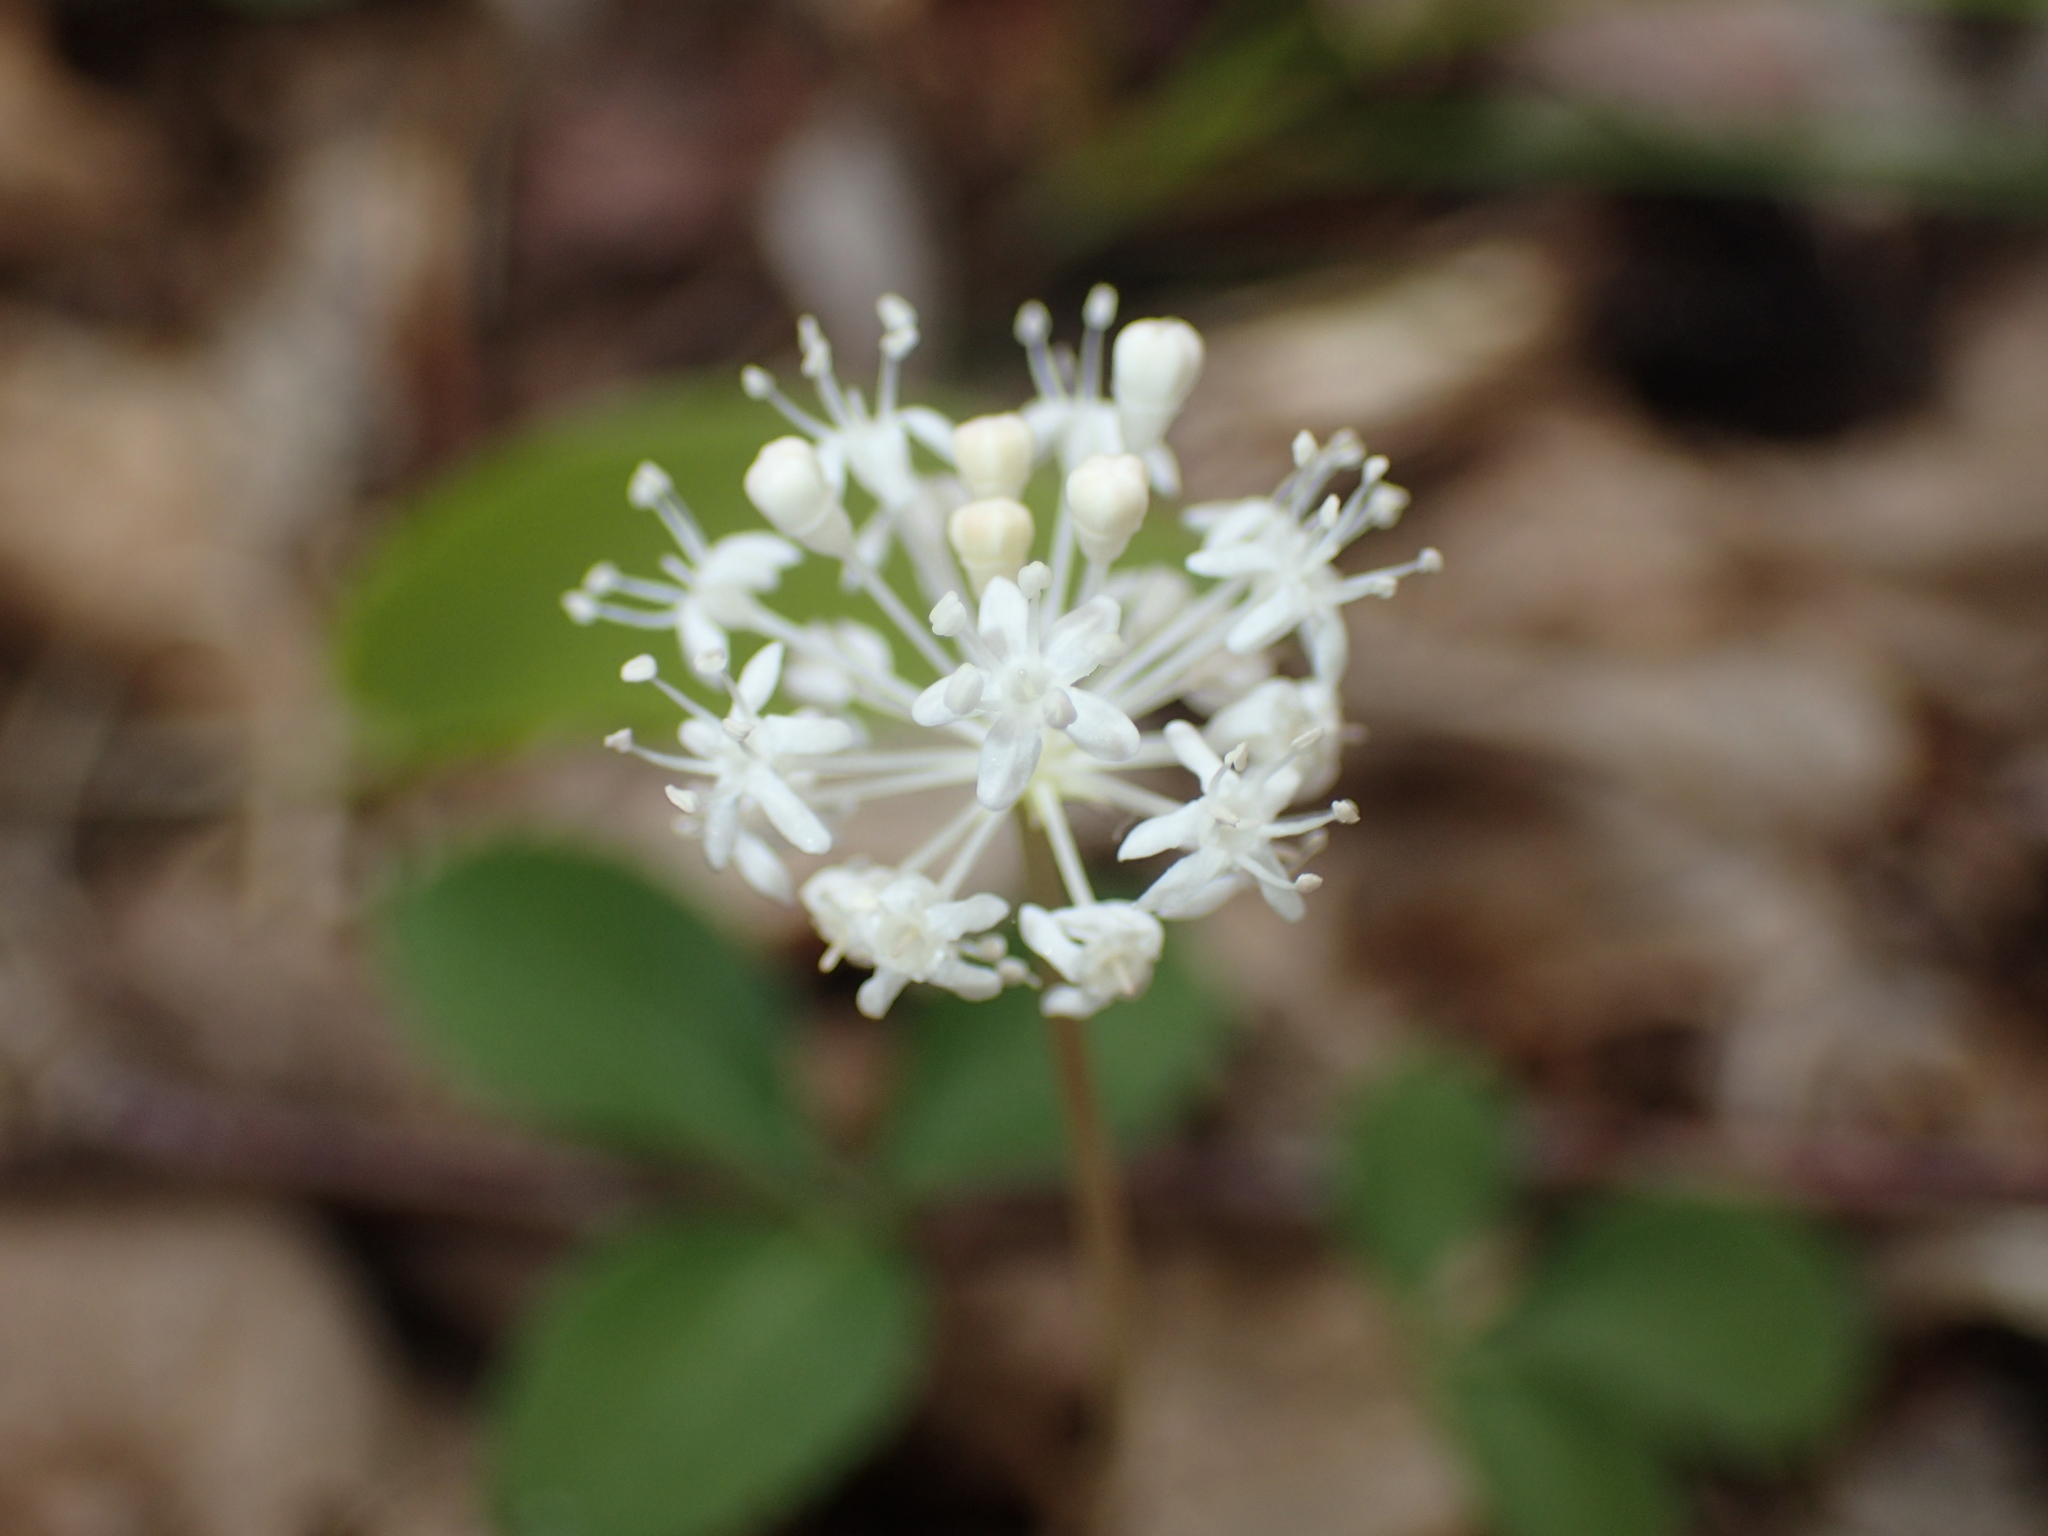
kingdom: Plantae
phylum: Tracheophyta
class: Magnoliopsida
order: Apiales
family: Araliaceae
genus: Panax
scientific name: Panax trifolius
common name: Dwarf ginseng
